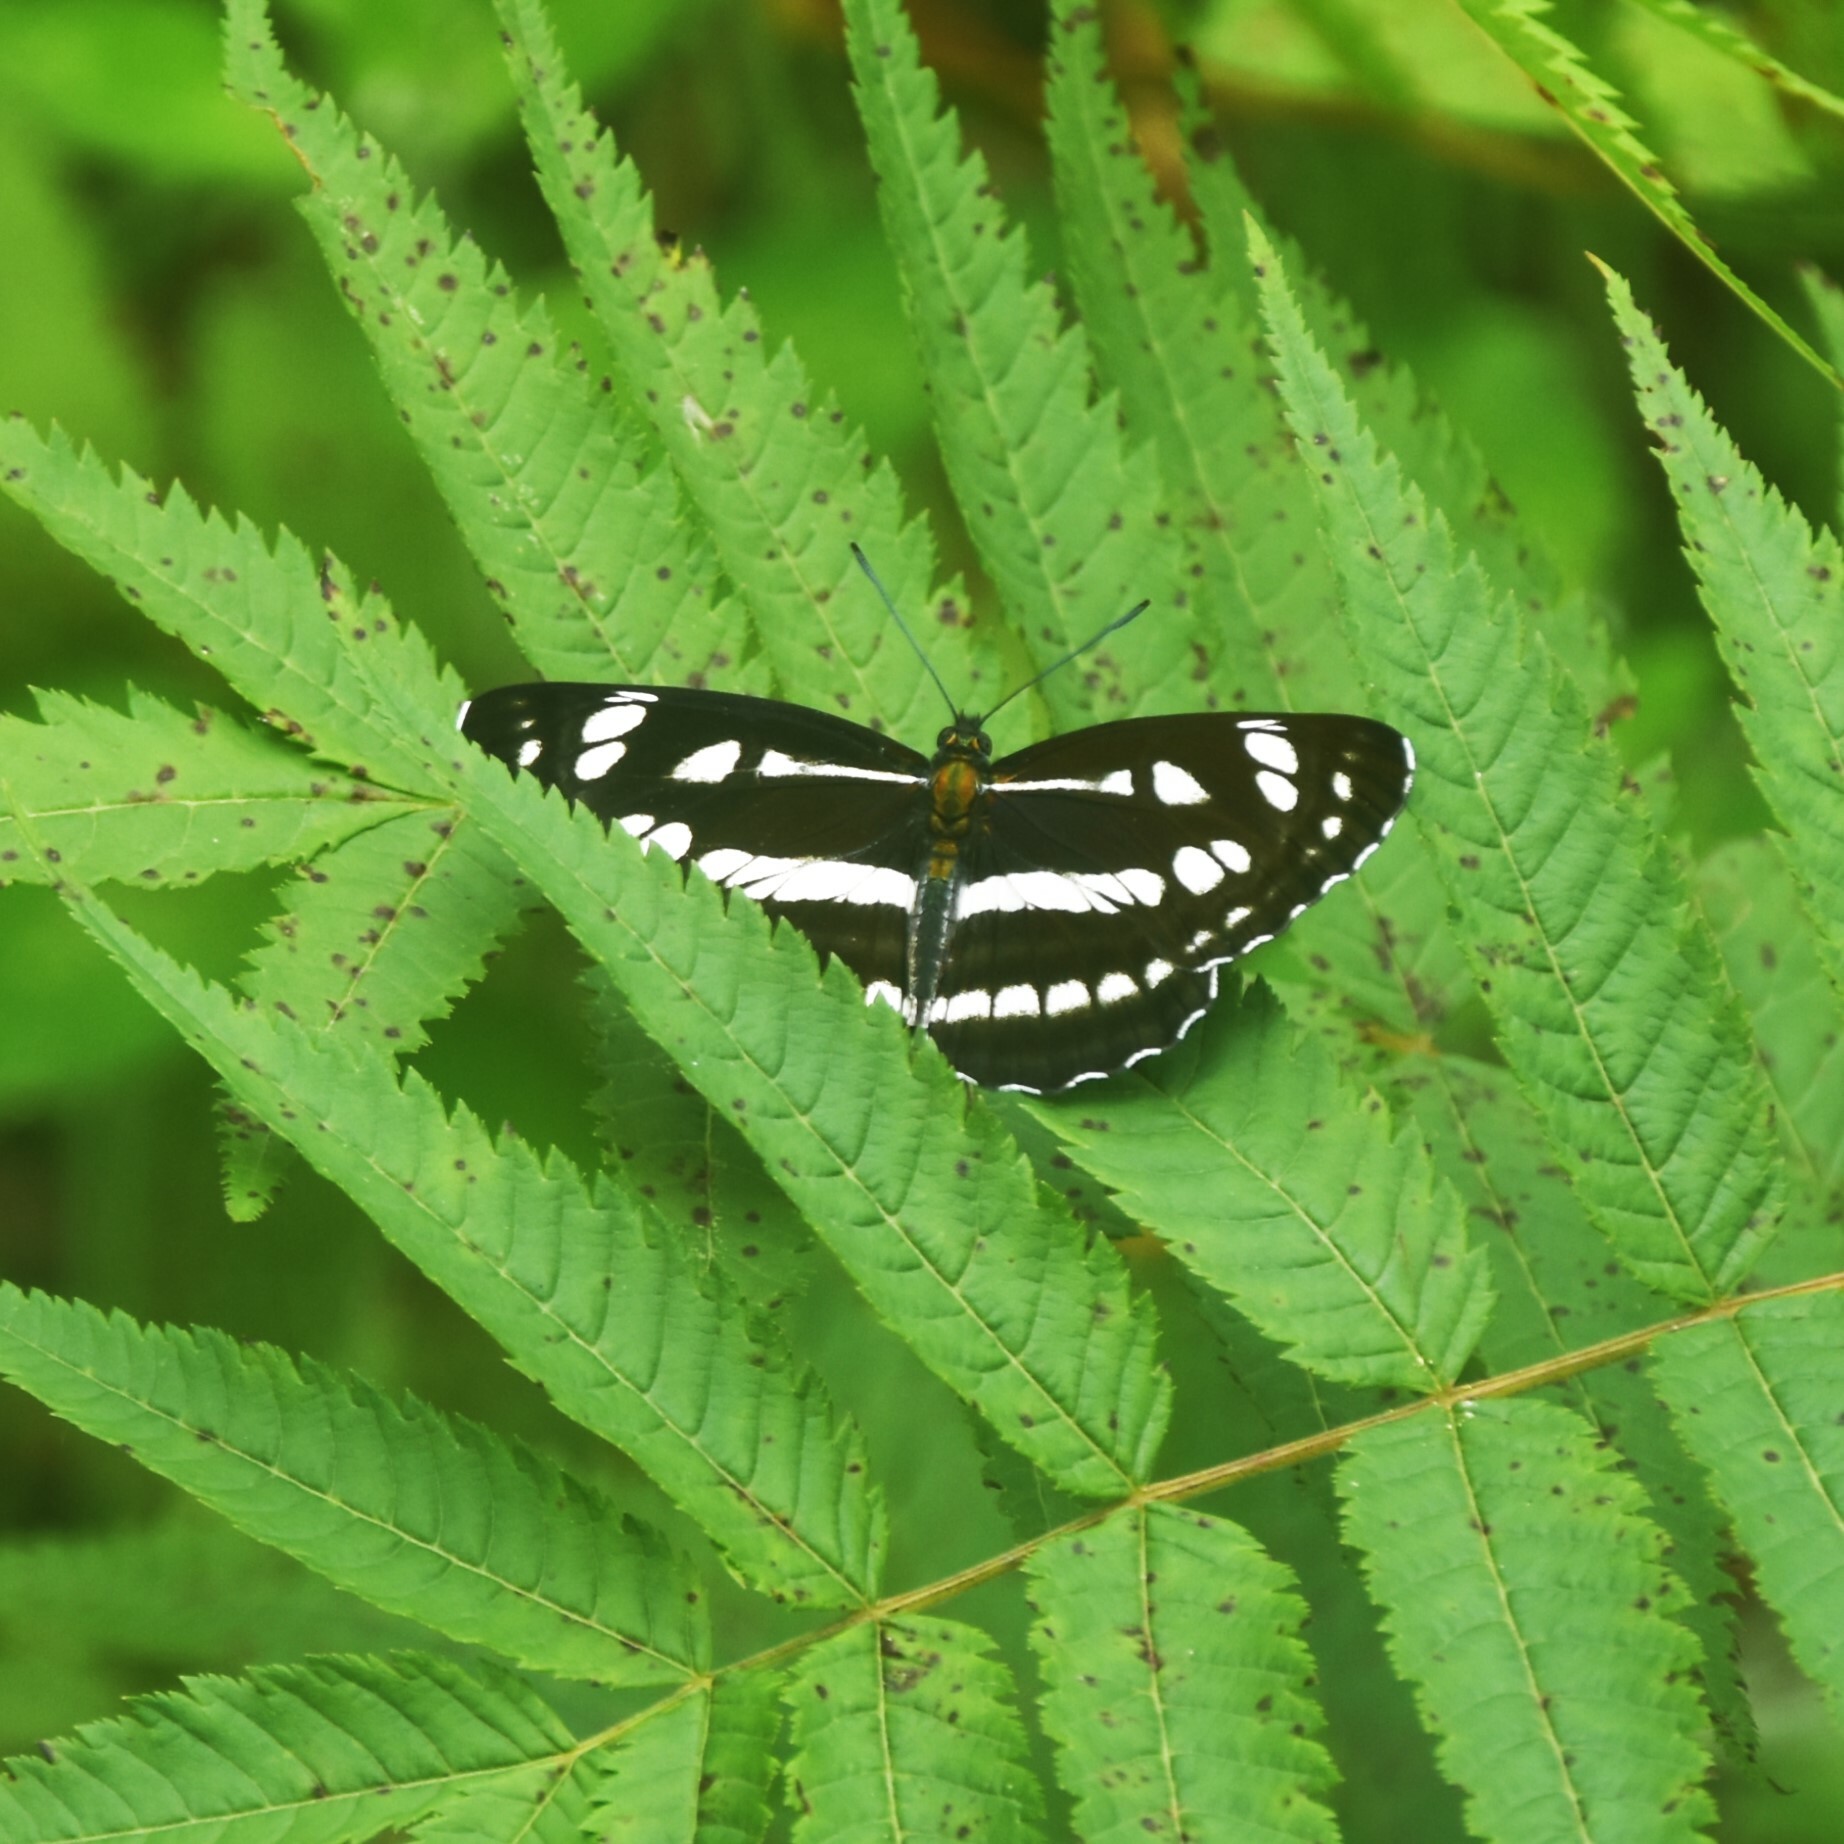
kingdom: Animalia
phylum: Arthropoda
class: Insecta
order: Lepidoptera
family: Nymphalidae
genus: Neptis
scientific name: Neptis mahendra
